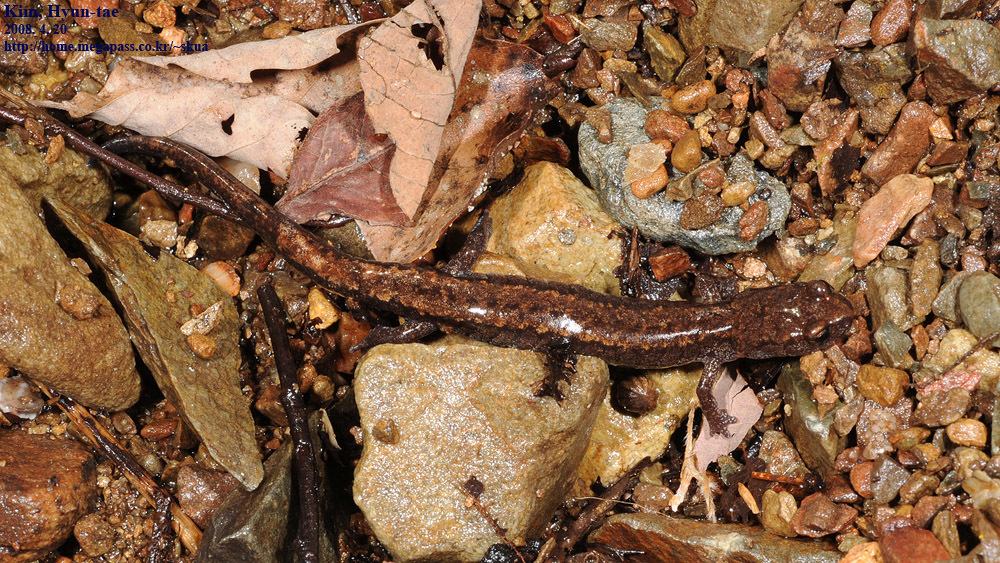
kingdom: Animalia
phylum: Chordata
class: Amphibia
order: Caudata
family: Plethodontidae
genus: Karsenia
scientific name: Karsenia koreana
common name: Korean crevice salamander
